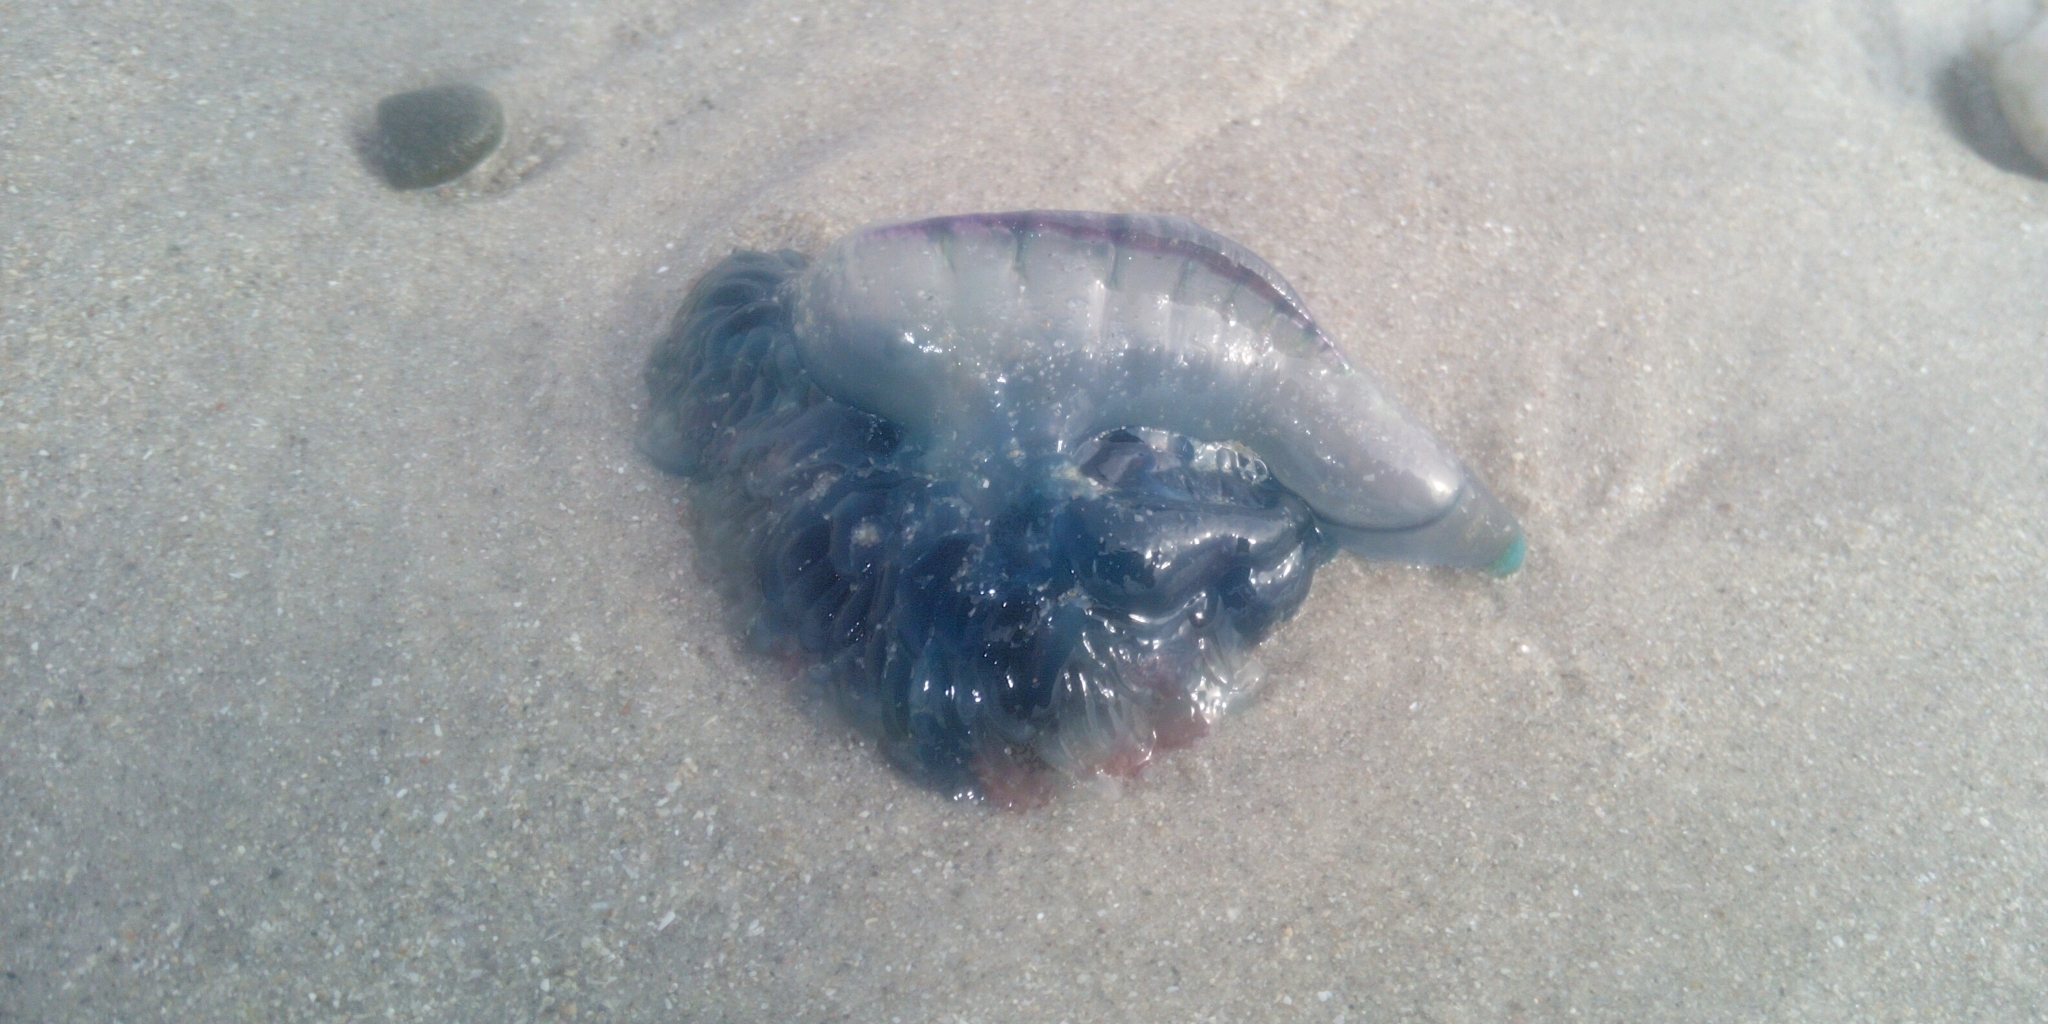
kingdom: Animalia
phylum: Cnidaria
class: Hydrozoa
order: Siphonophorae
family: Physaliidae
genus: Physalia
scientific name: Physalia physalis
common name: Portuguese man-of-war
